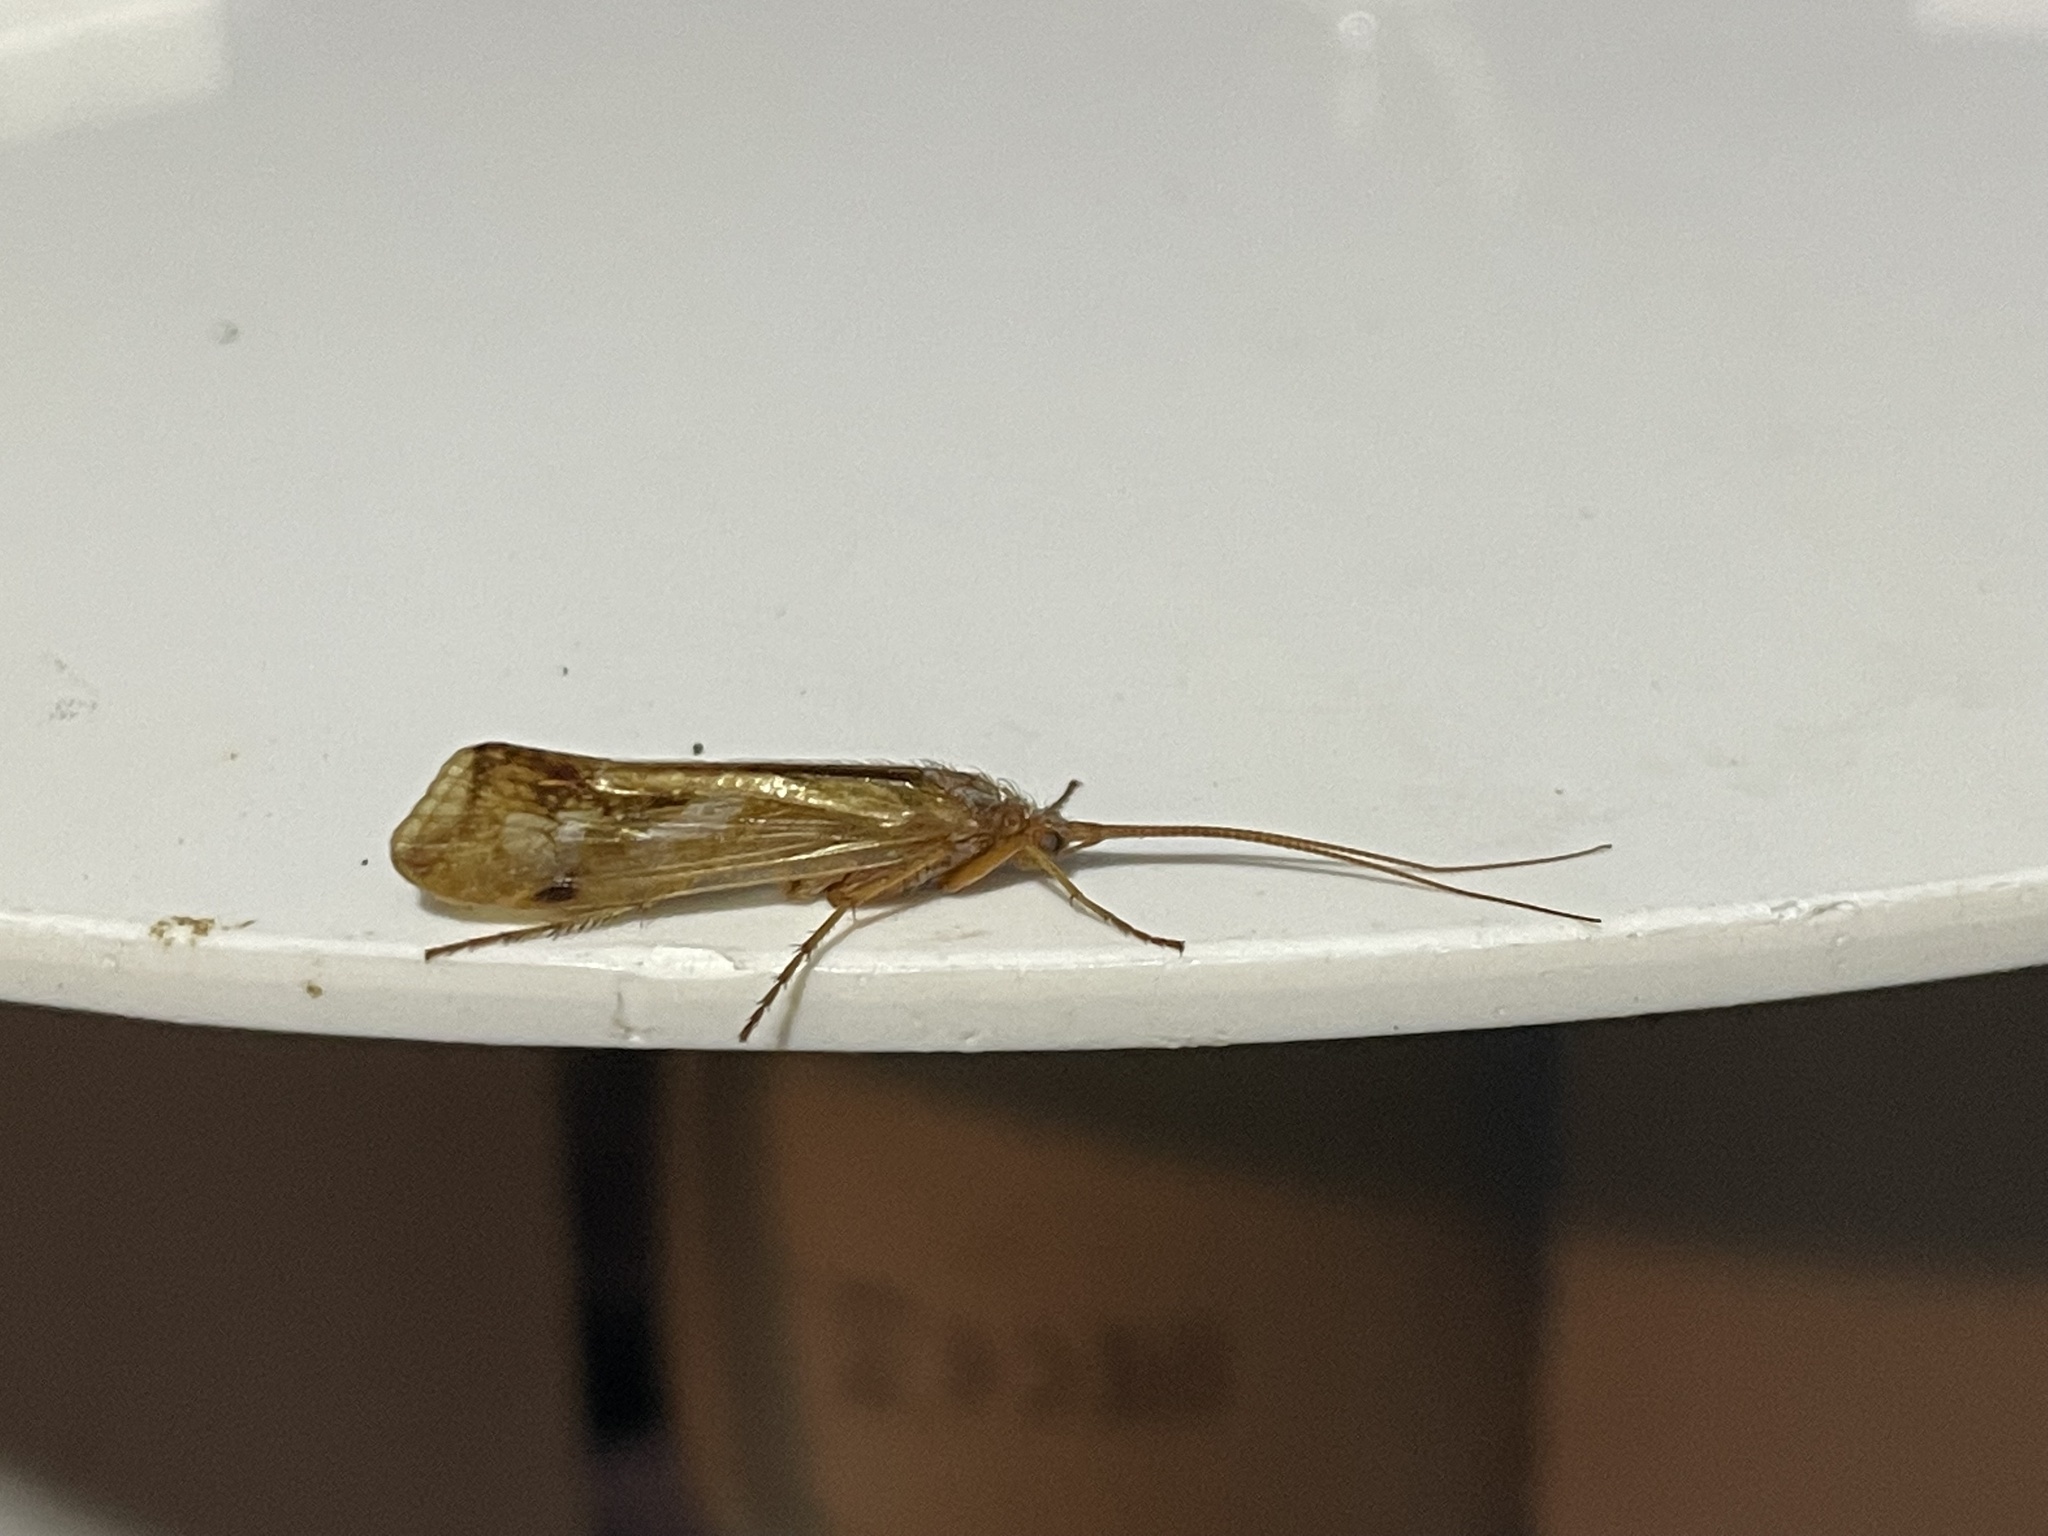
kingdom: Animalia
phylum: Arthropoda
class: Insecta
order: Trichoptera
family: Limnephilidae
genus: Limnephilus
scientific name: Limnephilus lunatus
